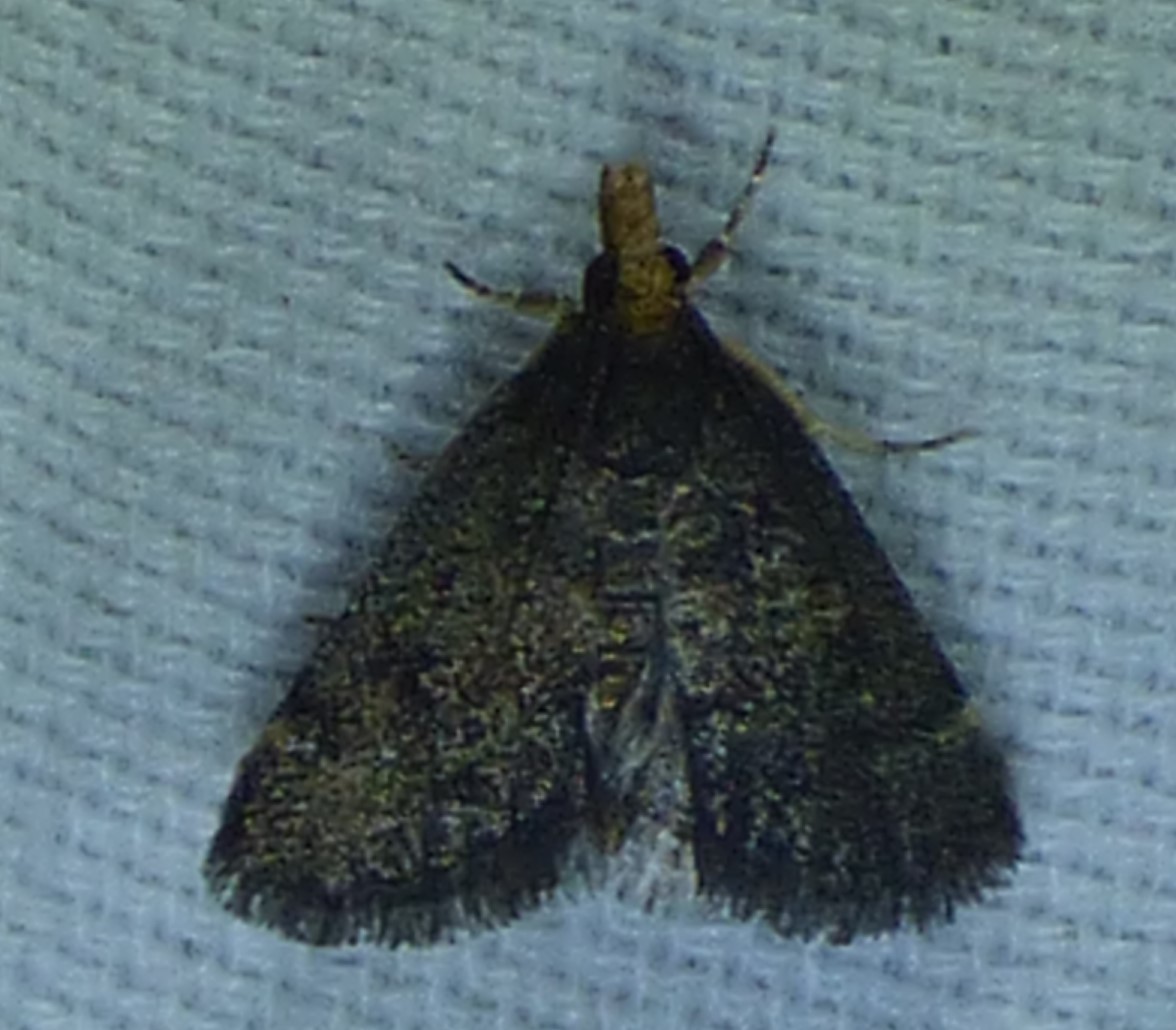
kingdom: Animalia
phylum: Arthropoda
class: Insecta
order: Lepidoptera
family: Crambidae
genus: Pyrausta
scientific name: Pyrausta merrickalis
